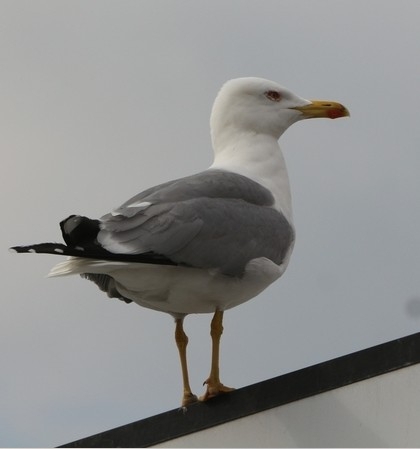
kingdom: Animalia
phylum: Chordata
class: Aves
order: Charadriiformes
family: Laridae
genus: Larus
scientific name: Larus michahellis
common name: Yellow-legged gull
